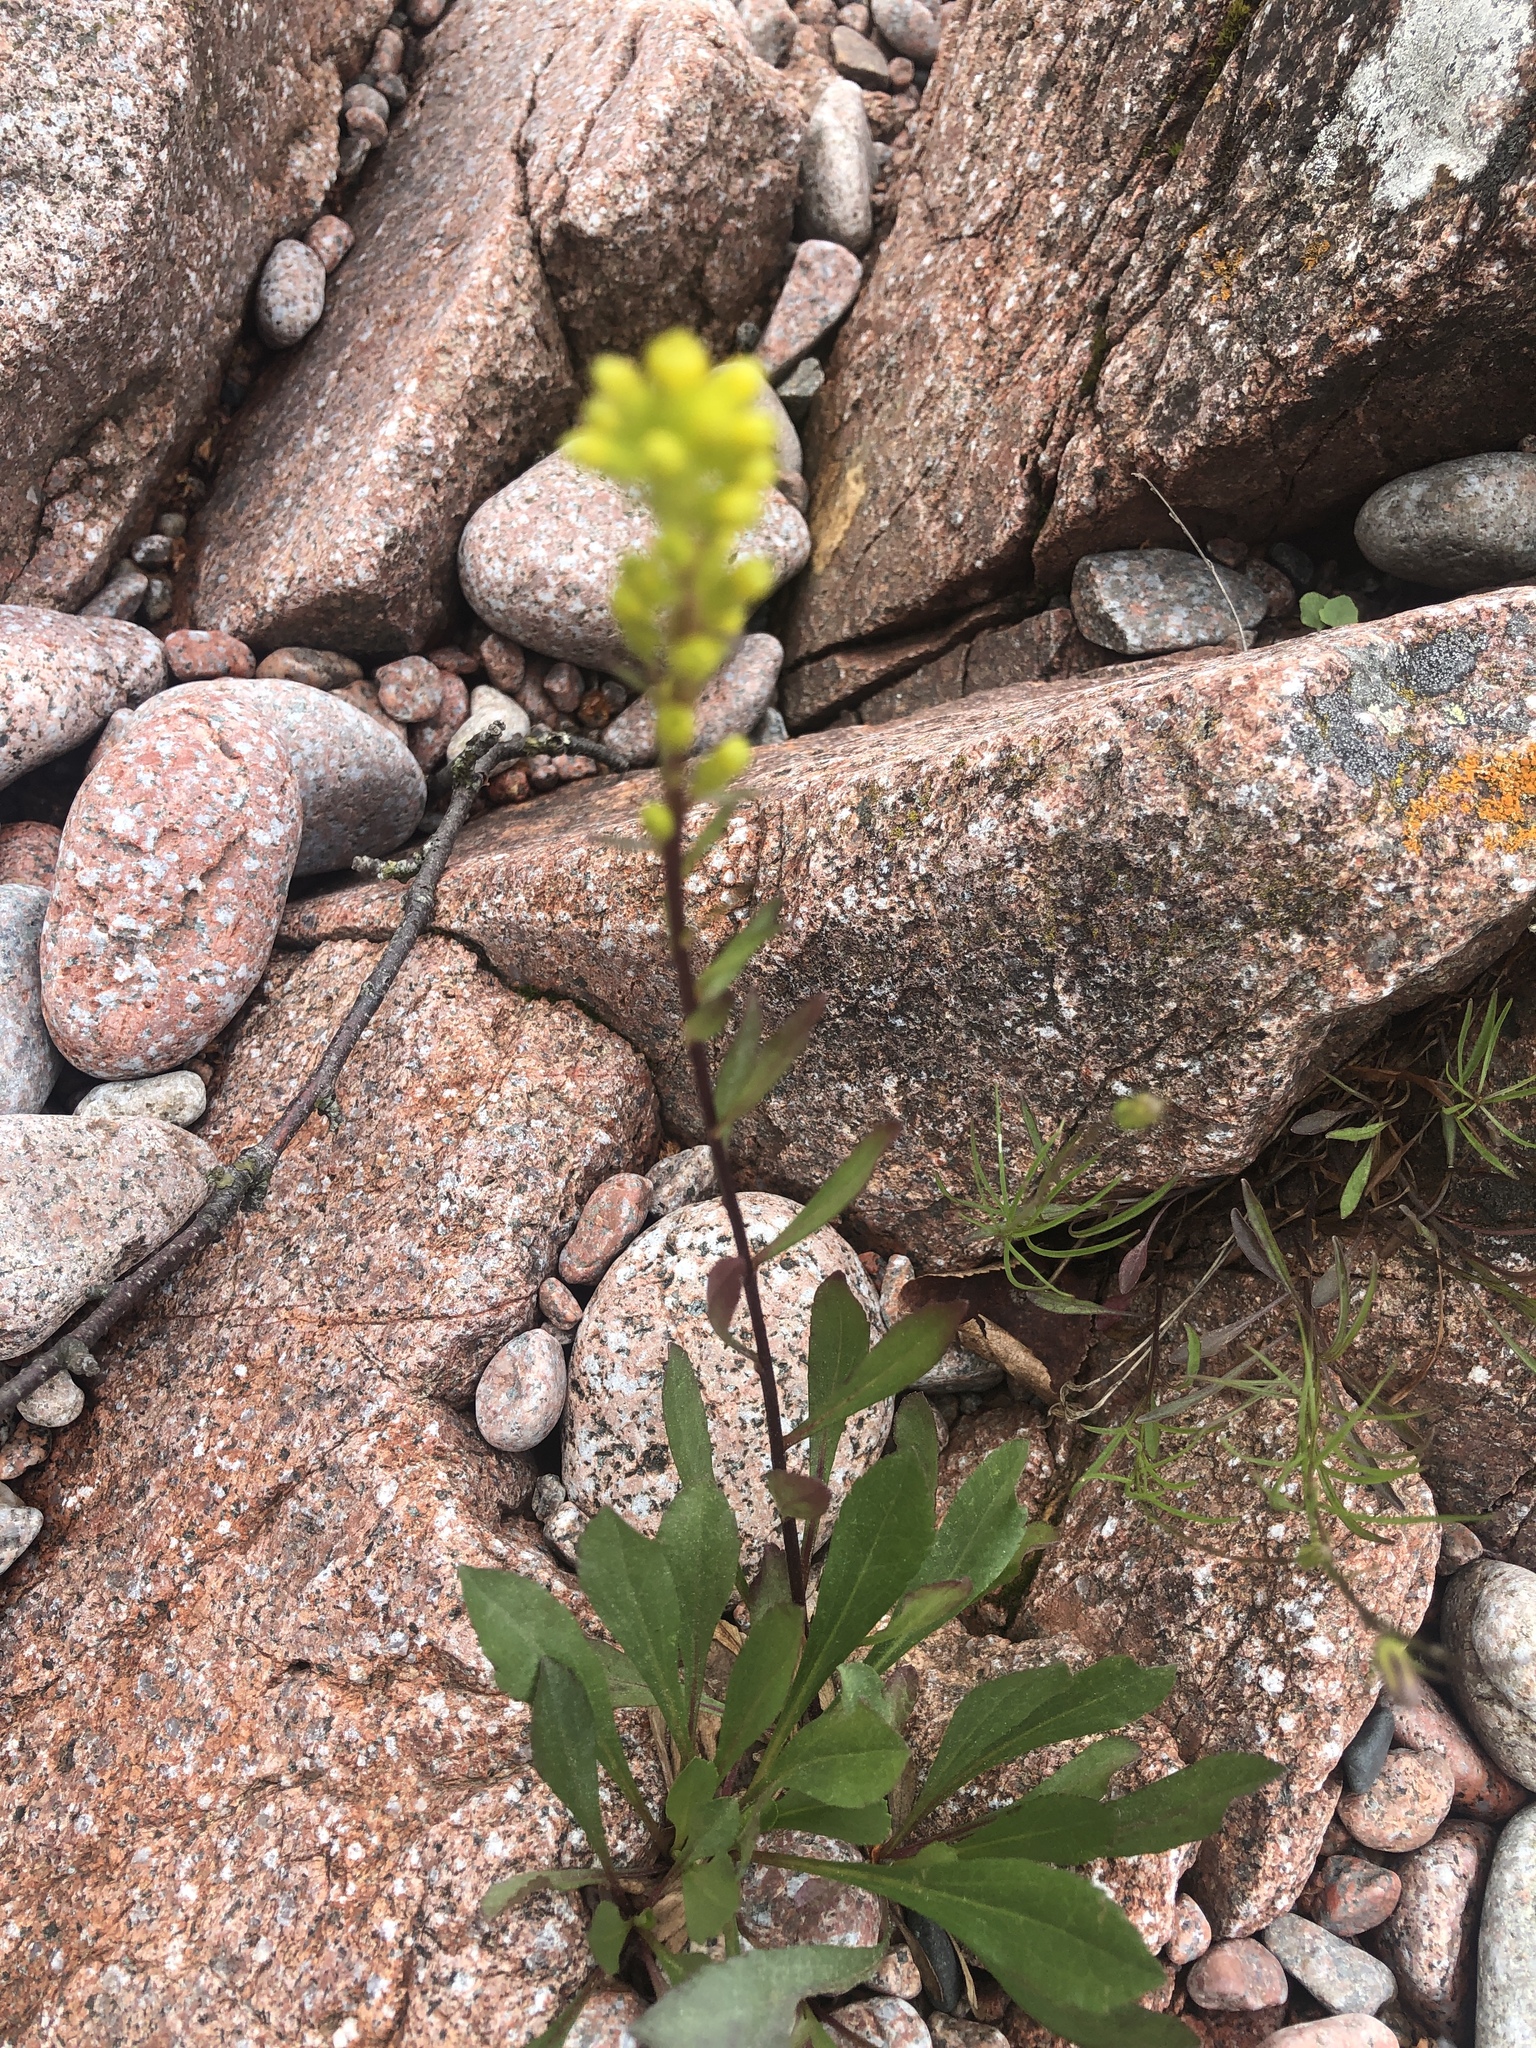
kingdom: Plantae
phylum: Tracheophyta
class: Magnoliopsida
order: Asterales
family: Asteraceae
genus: Solidago
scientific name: Solidago glutinosa
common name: Decumbent goldenrod
